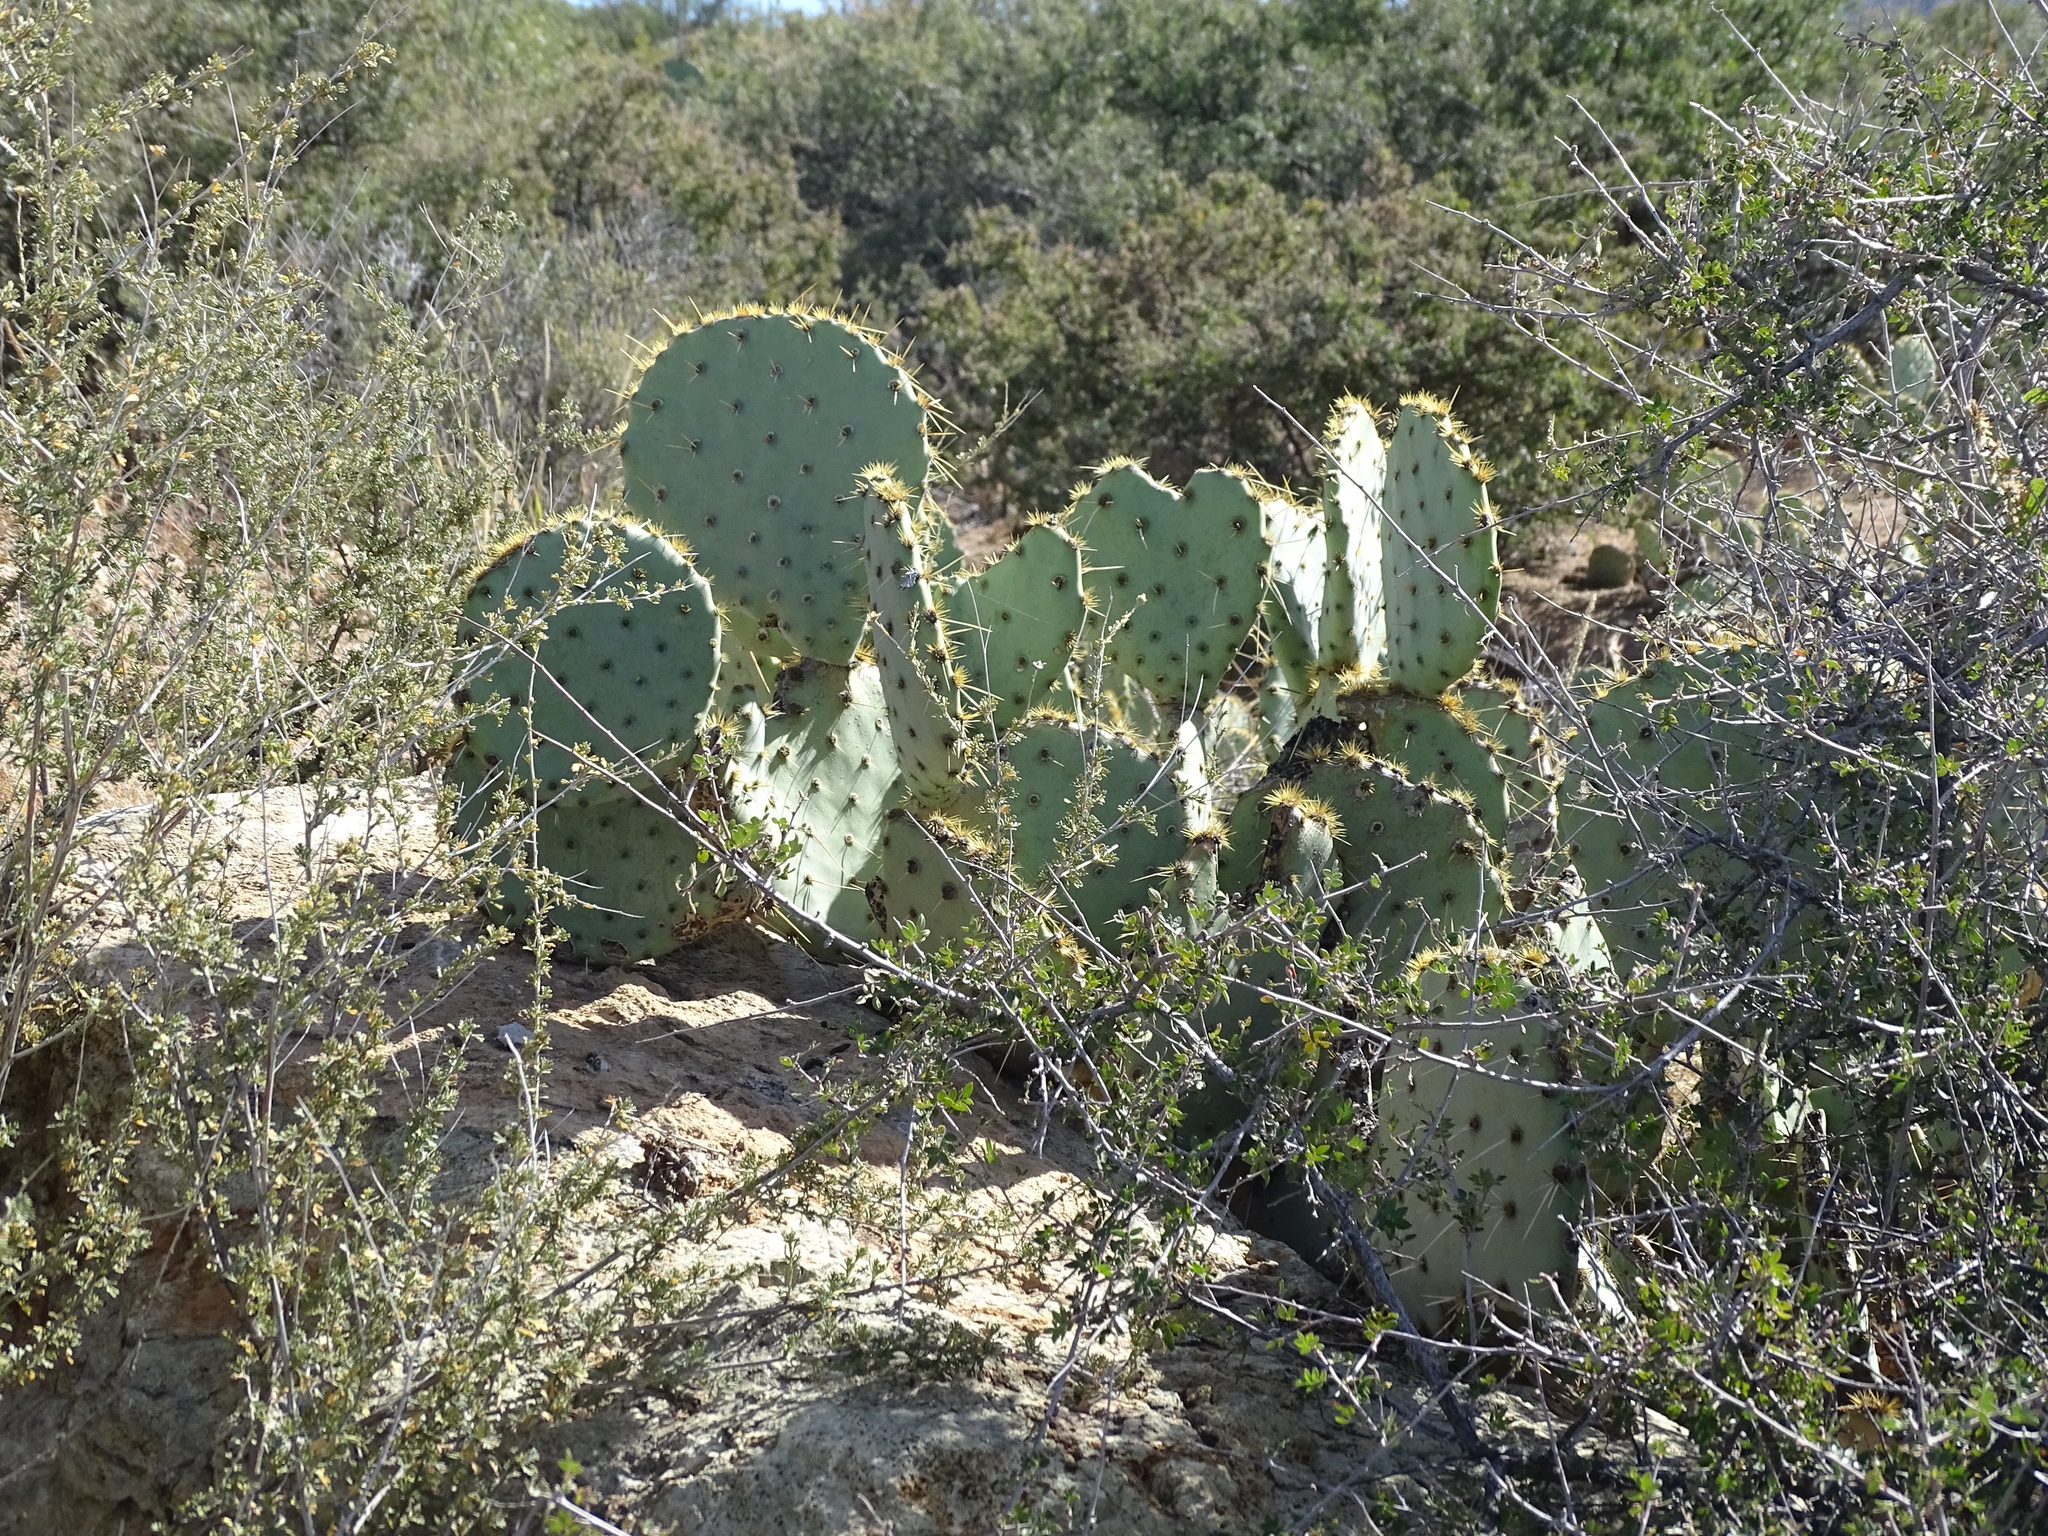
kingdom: Plantae
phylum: Tracheophyta
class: Magnoliopsida
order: Caryophyllales
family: Cactaceae
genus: Opuntia
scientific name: Opuntia engelmannii
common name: Cactus-apple
